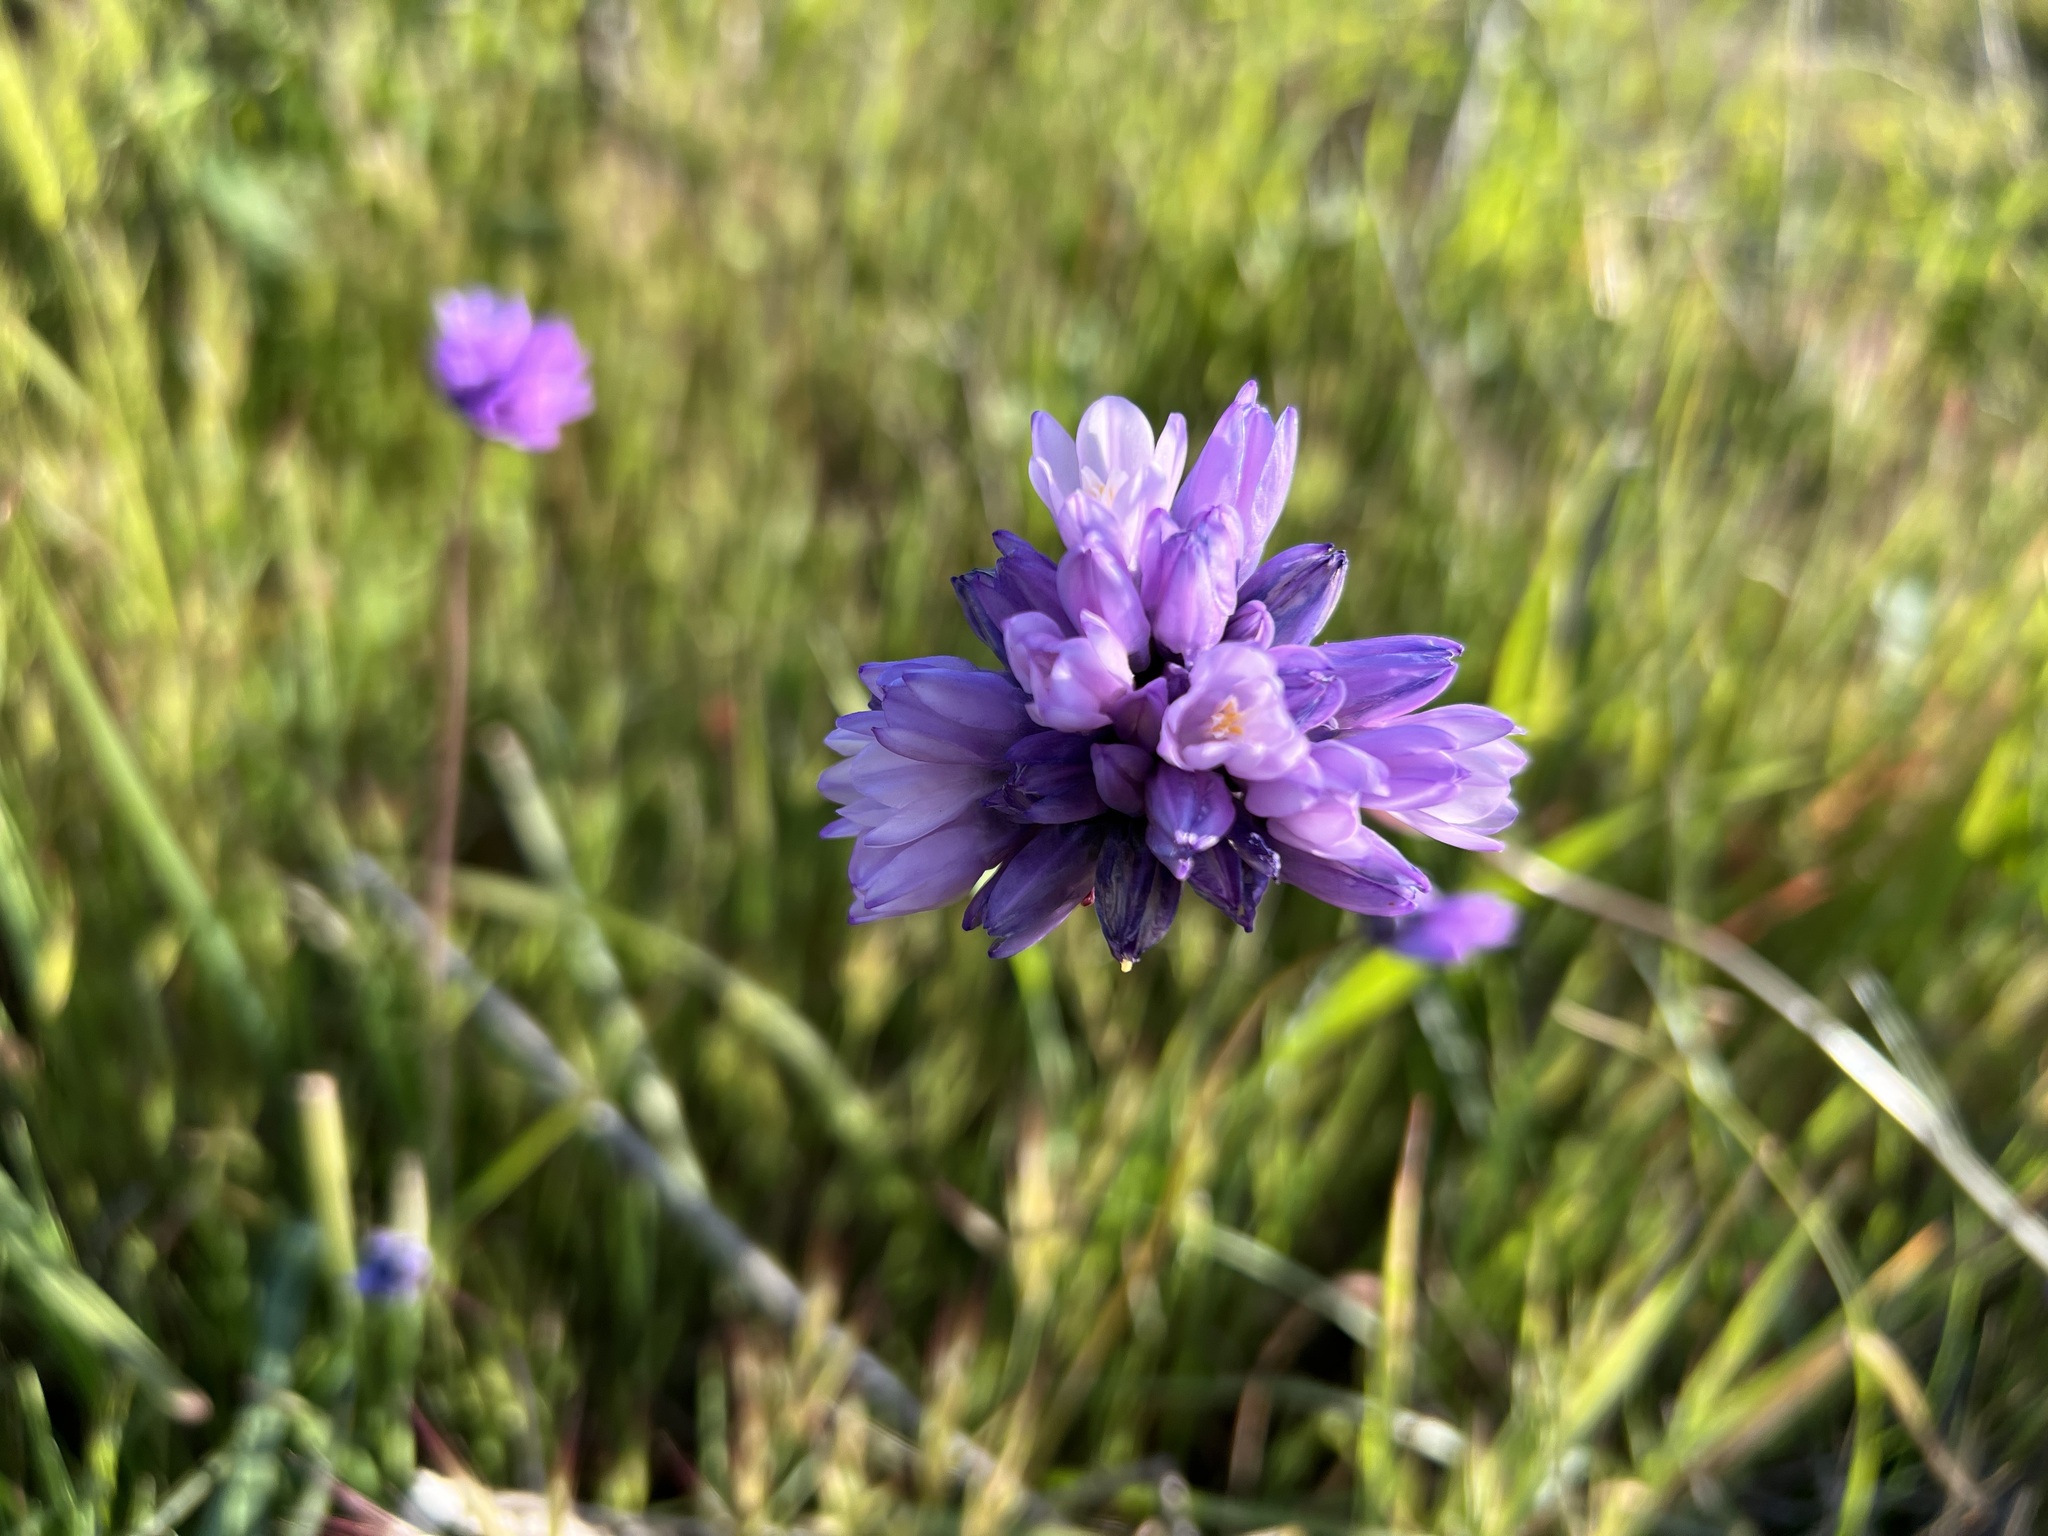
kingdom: Plantae
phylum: Tracheophyta
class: Liliopsida
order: Asparagales
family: Asparagaceae
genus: Dipterostemon
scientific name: Dipterostemon capitatus
